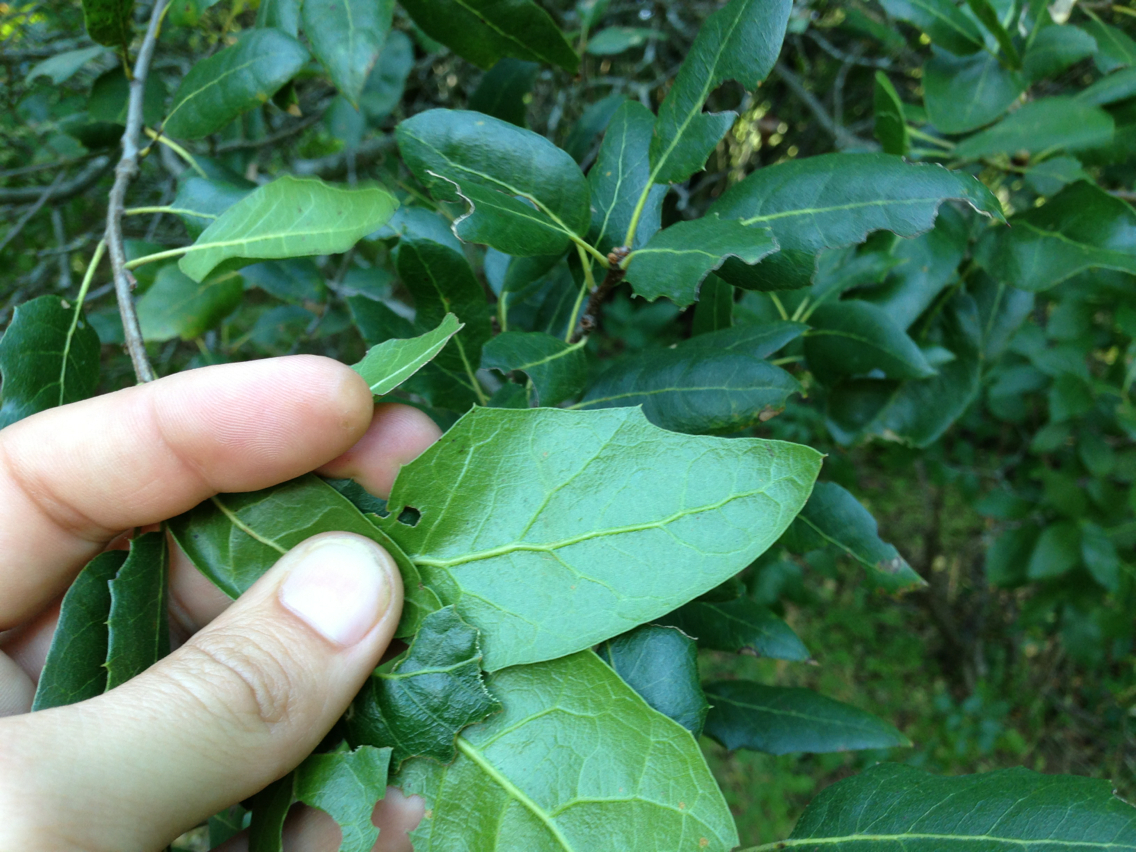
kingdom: Plantae
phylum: Tracheophyta
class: Magnoliopsida
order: Fagales
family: Fagaceae
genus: Quercus
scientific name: Quercus wislizeni
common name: Interior live oak
